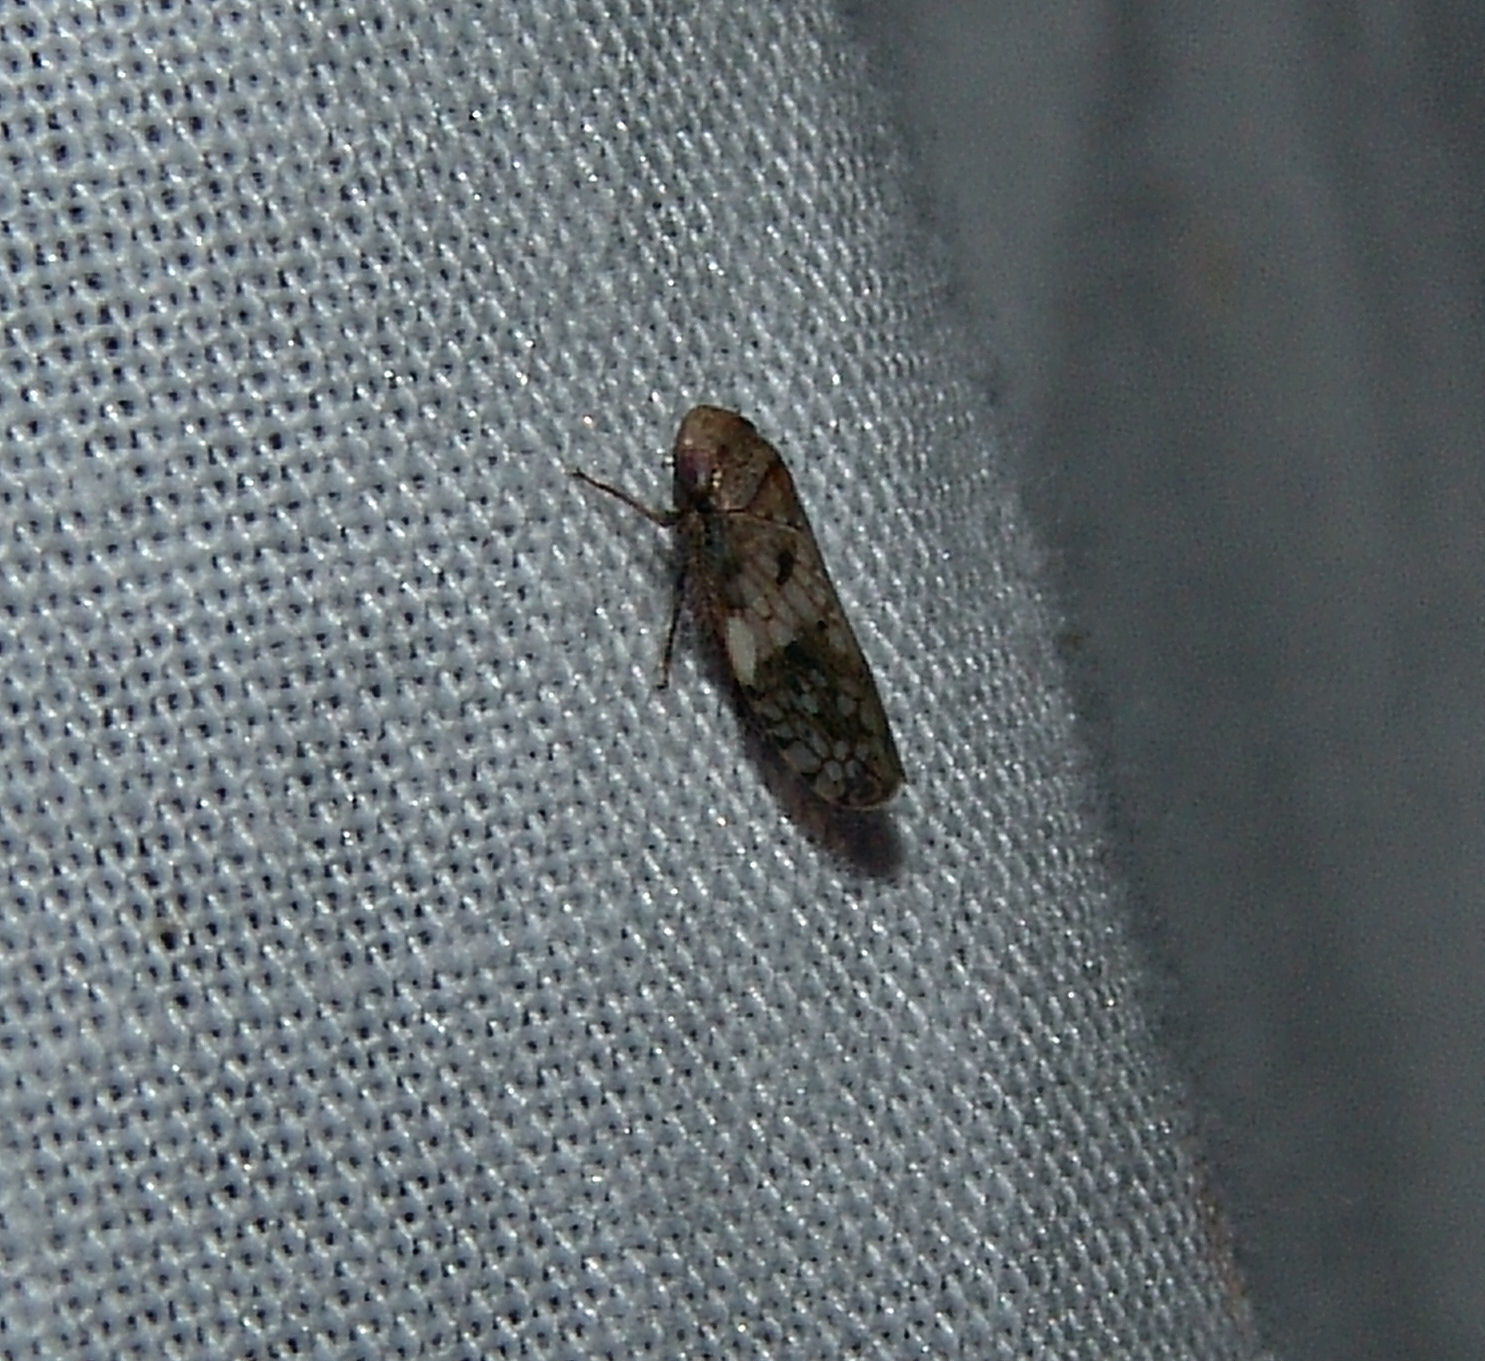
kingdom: Animalia
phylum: Arthropoda
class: Insecta
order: Hemiptera
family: Cicadellidae
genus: Menosoma
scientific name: Menosoma cinctum
